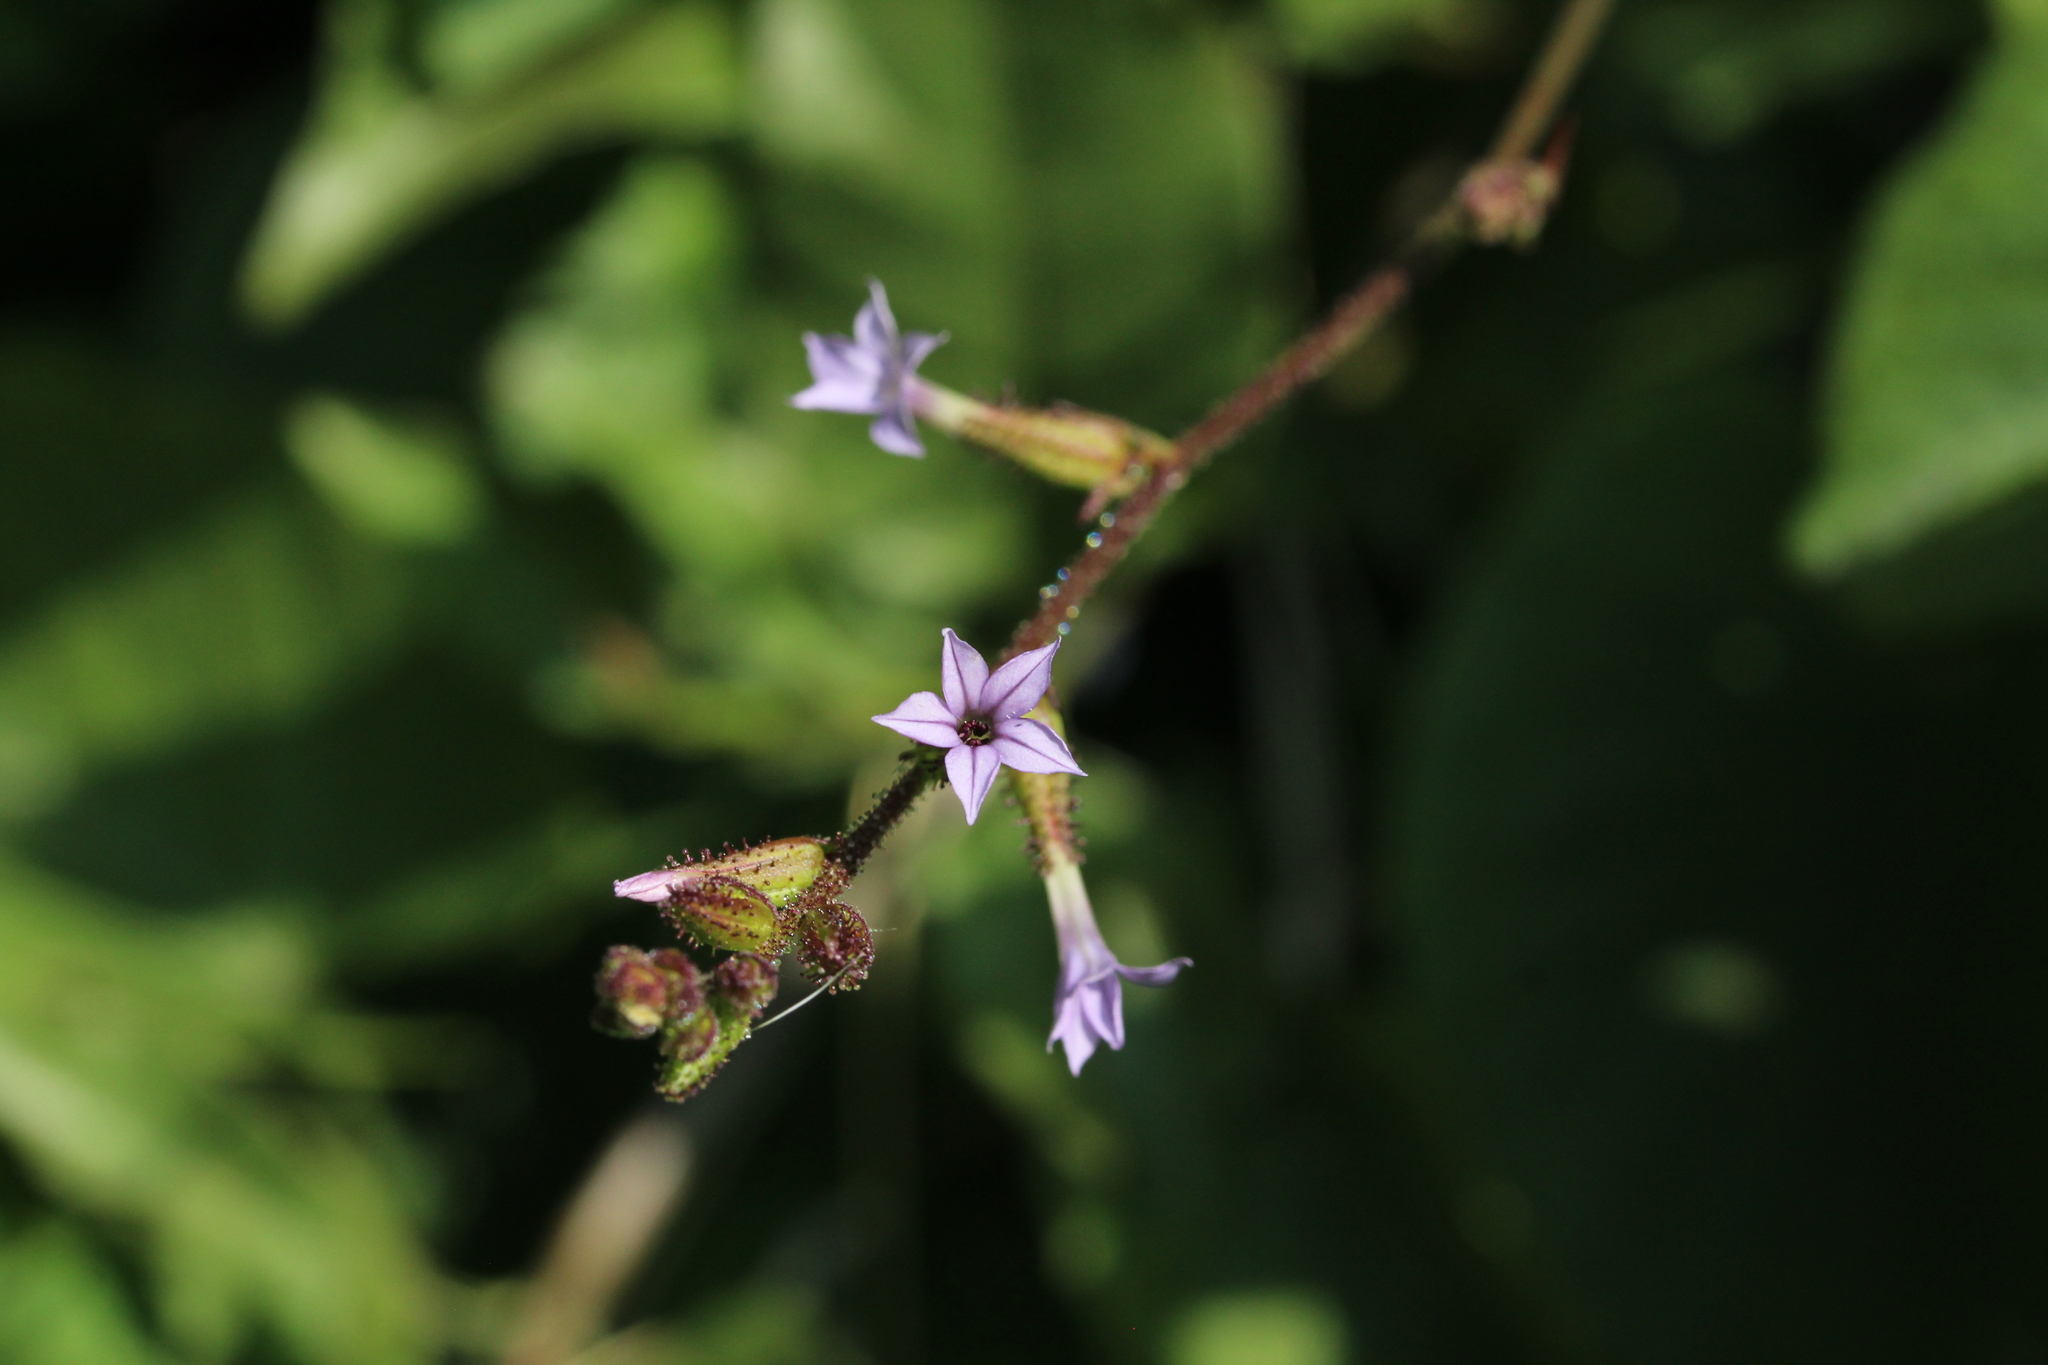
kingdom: Plantae
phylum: Tracheophyta
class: Magnoliopsida
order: Caryophyllales
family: Plumbaginaceae
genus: Plumbago
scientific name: Plumbago pulchella
